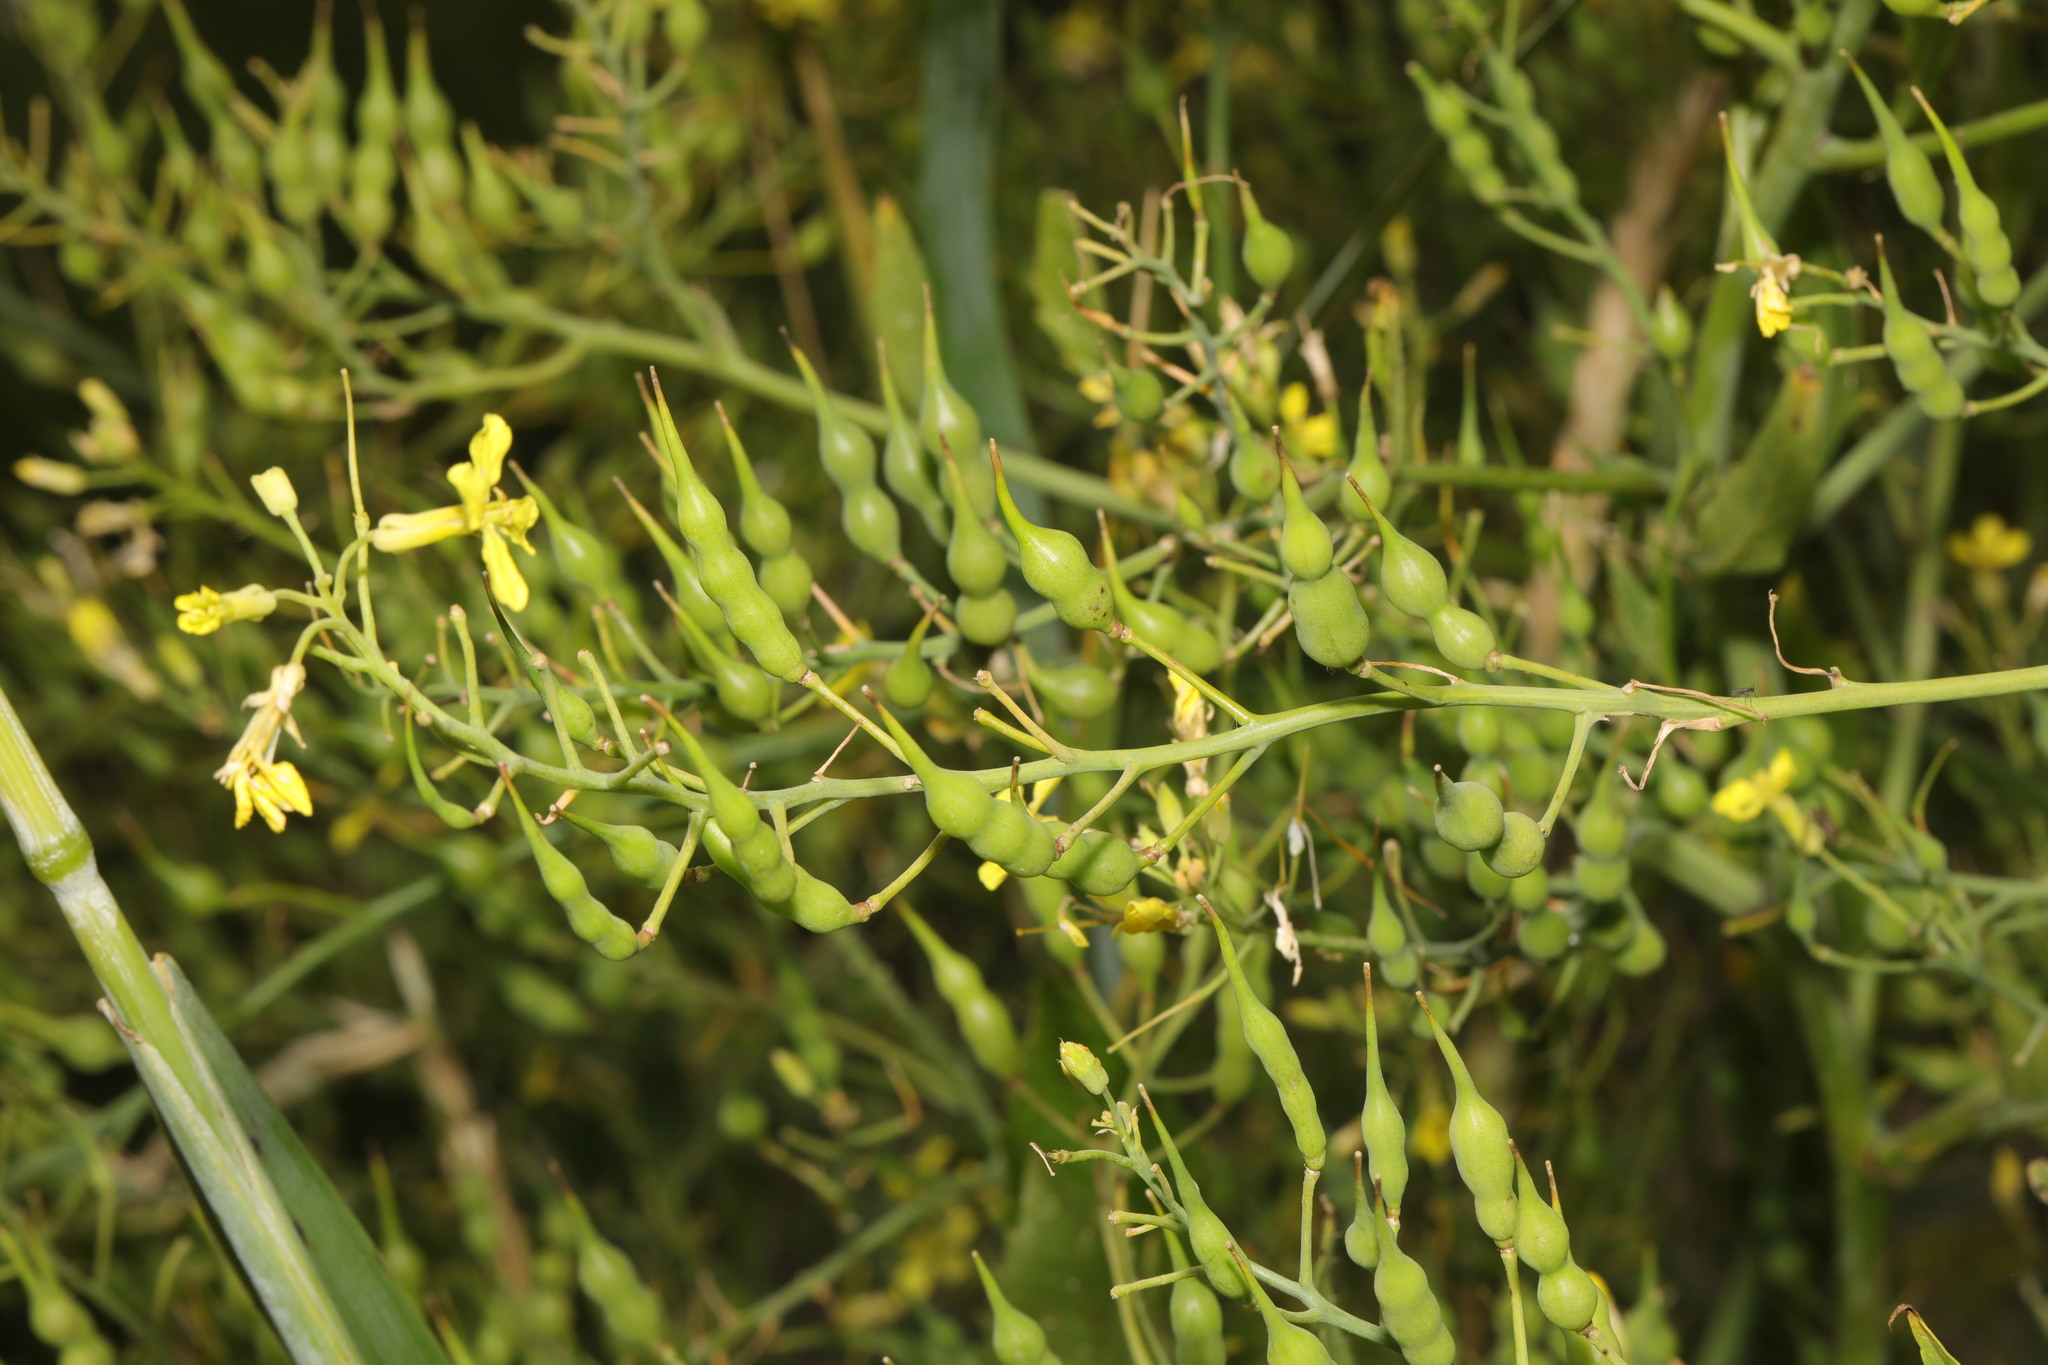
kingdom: Plantae
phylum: Tracheophyta
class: Magnoliopsida
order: Brassicales
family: Brassicaceae
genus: Raphanus
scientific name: Raphanus raphanistrum
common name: Wild radish
